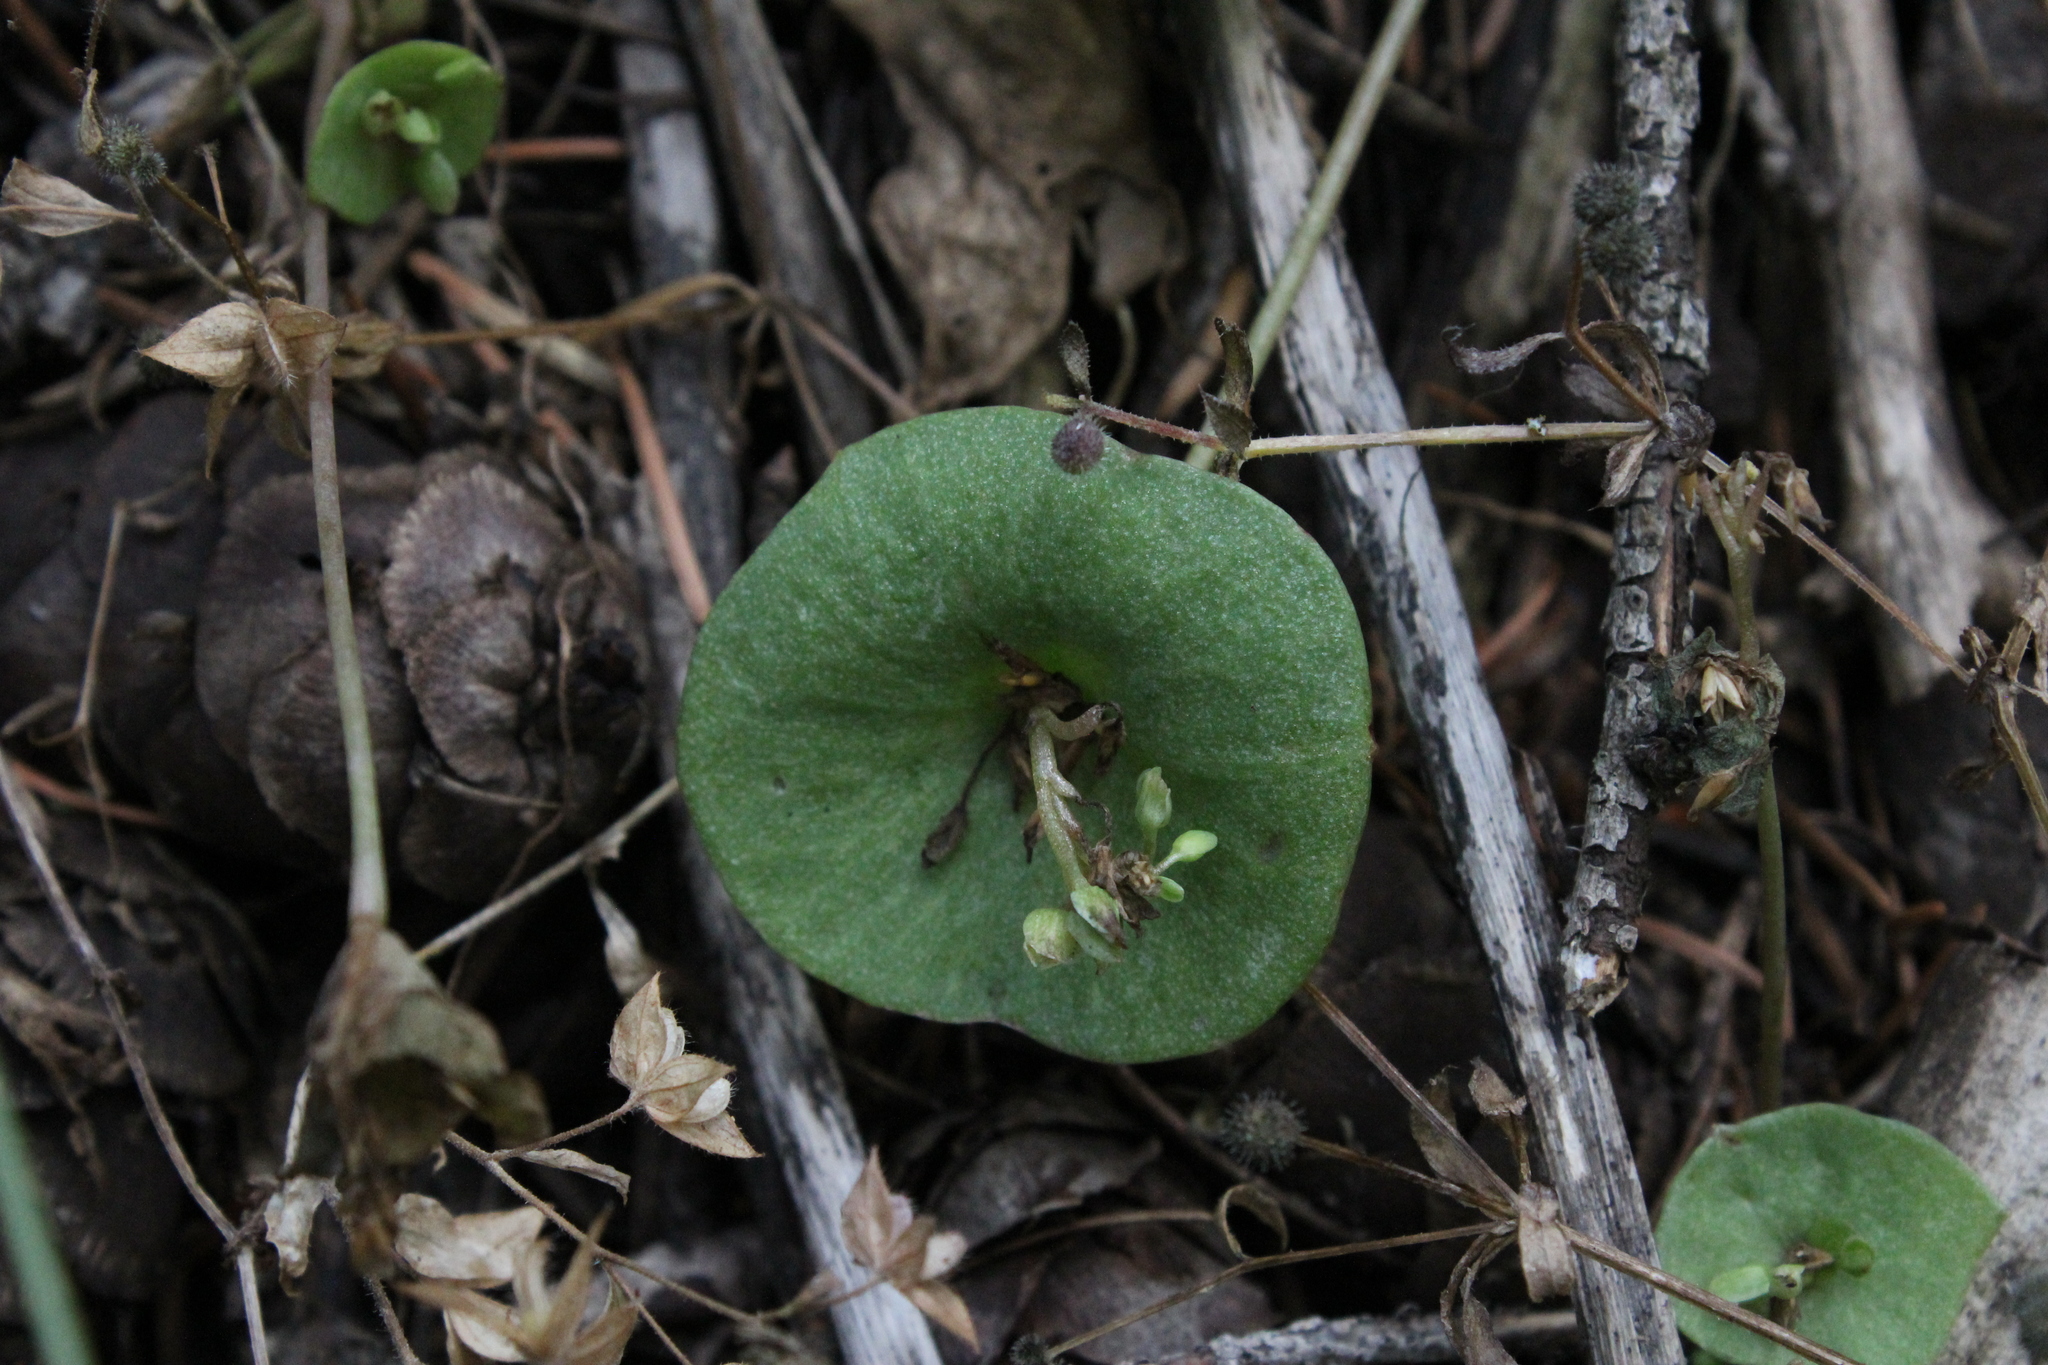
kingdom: Plantae
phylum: Tracheophyta
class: Magnoliopsida
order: Caryophyllales
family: Montiaceae
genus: Claytonia
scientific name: Claytonia perfoliata
